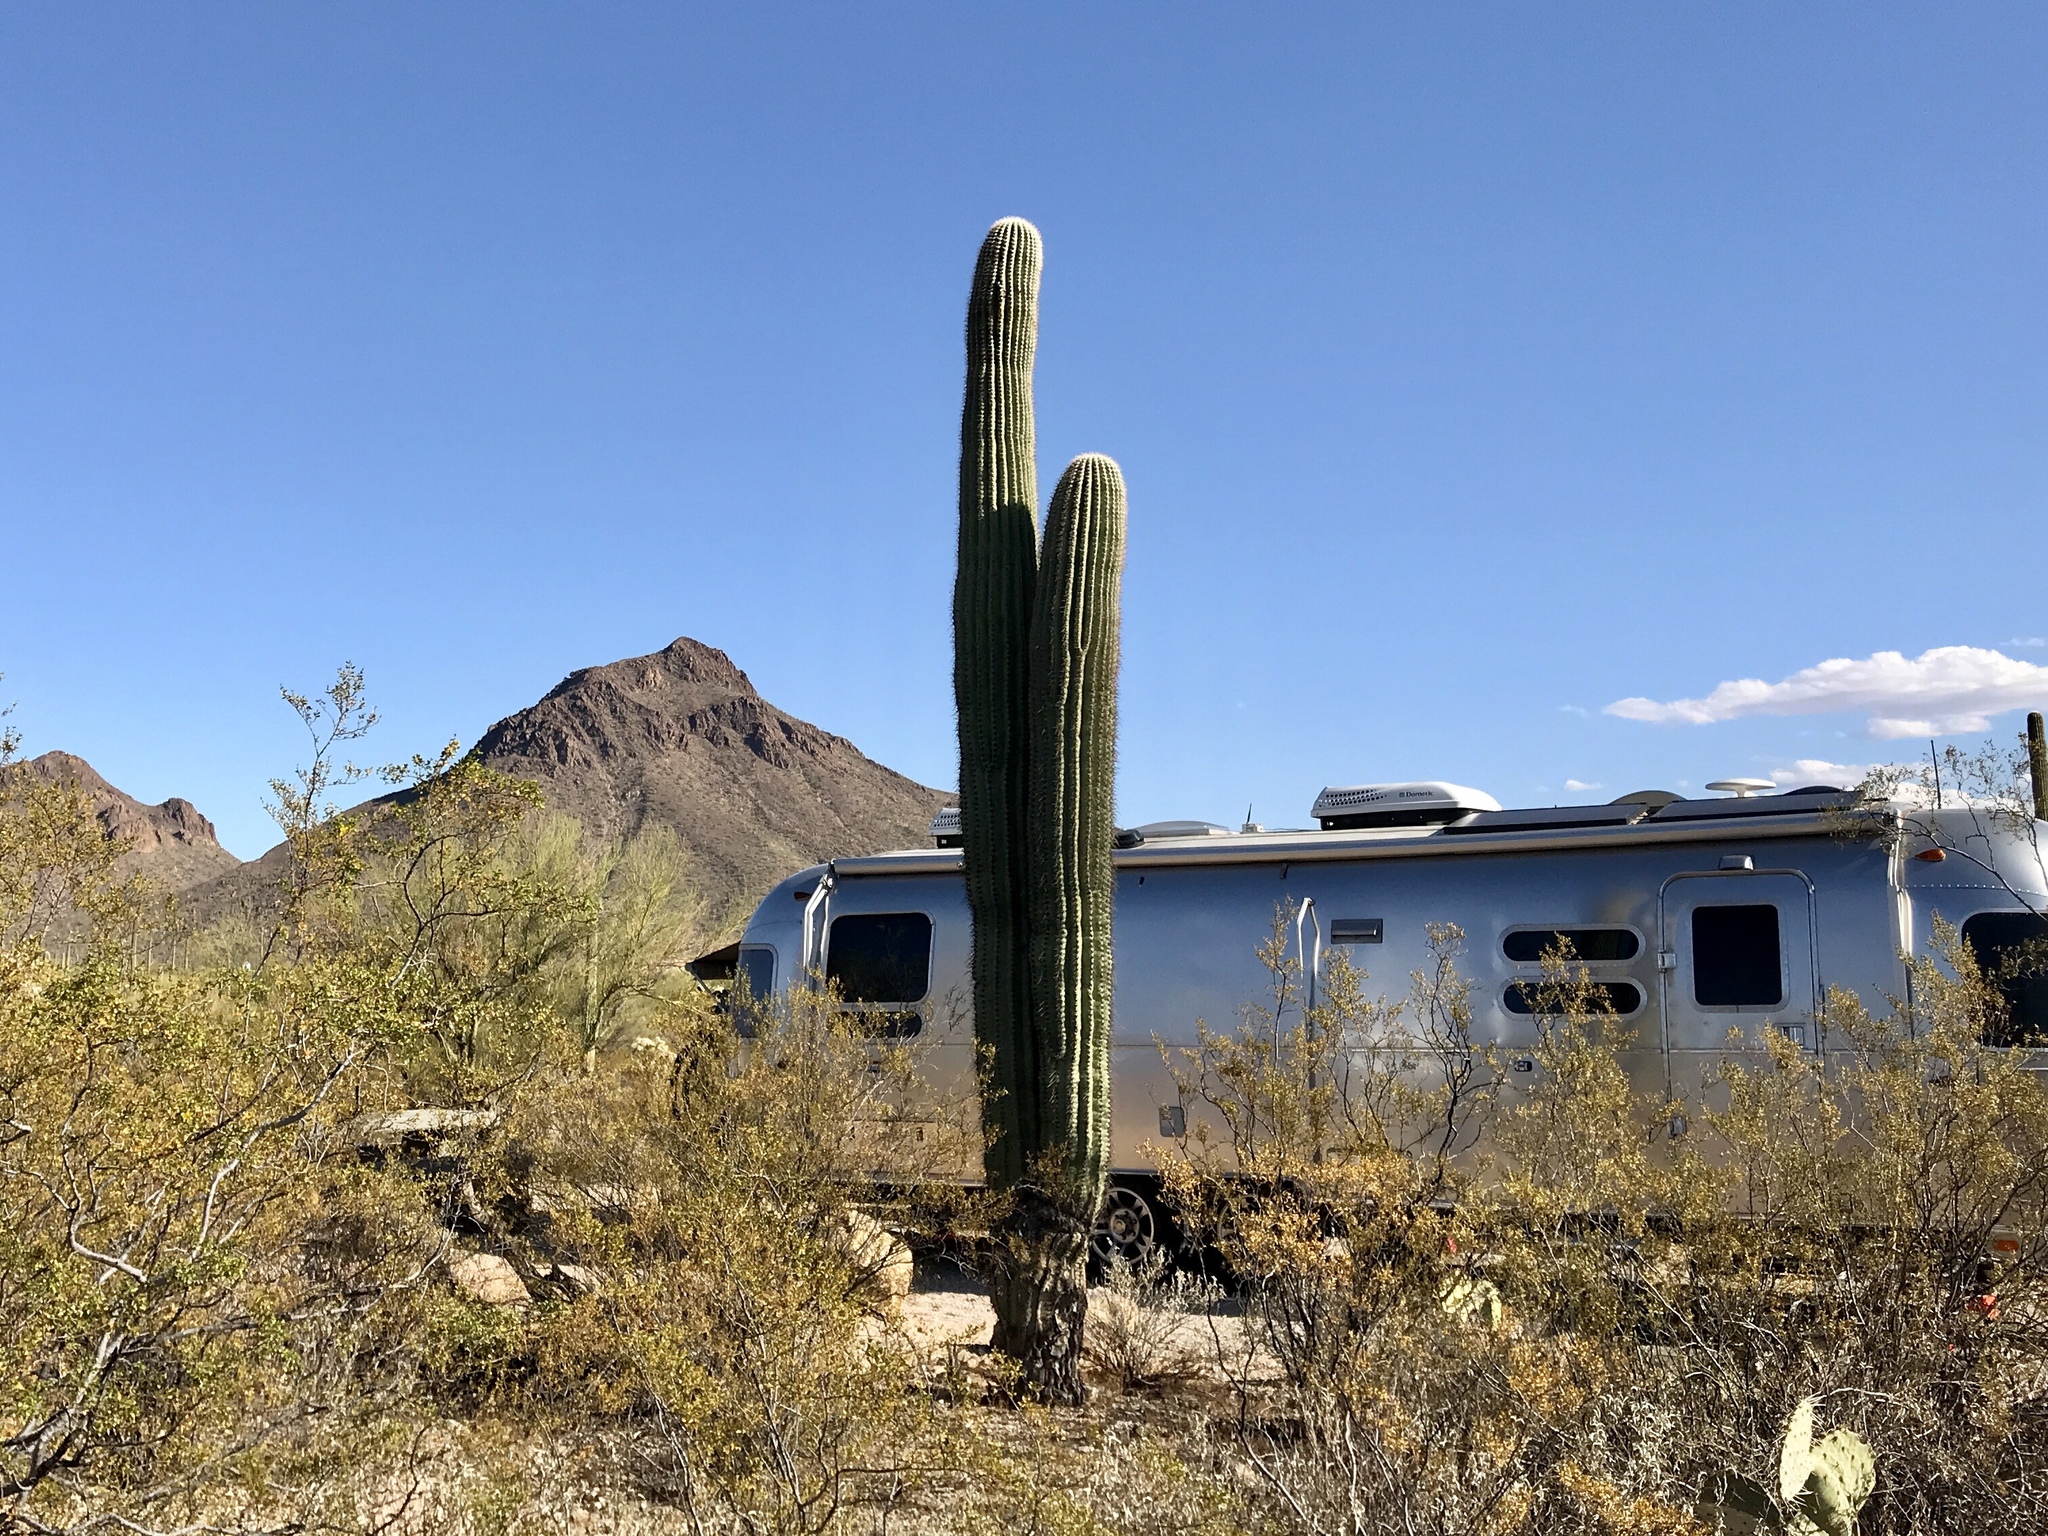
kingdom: Plantae
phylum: Tracheophyta
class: Magnoliopsida
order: Caryophyllales
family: Cactaceae
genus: Carnegiea
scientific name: Carnegiea gigantea
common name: Saguaro
